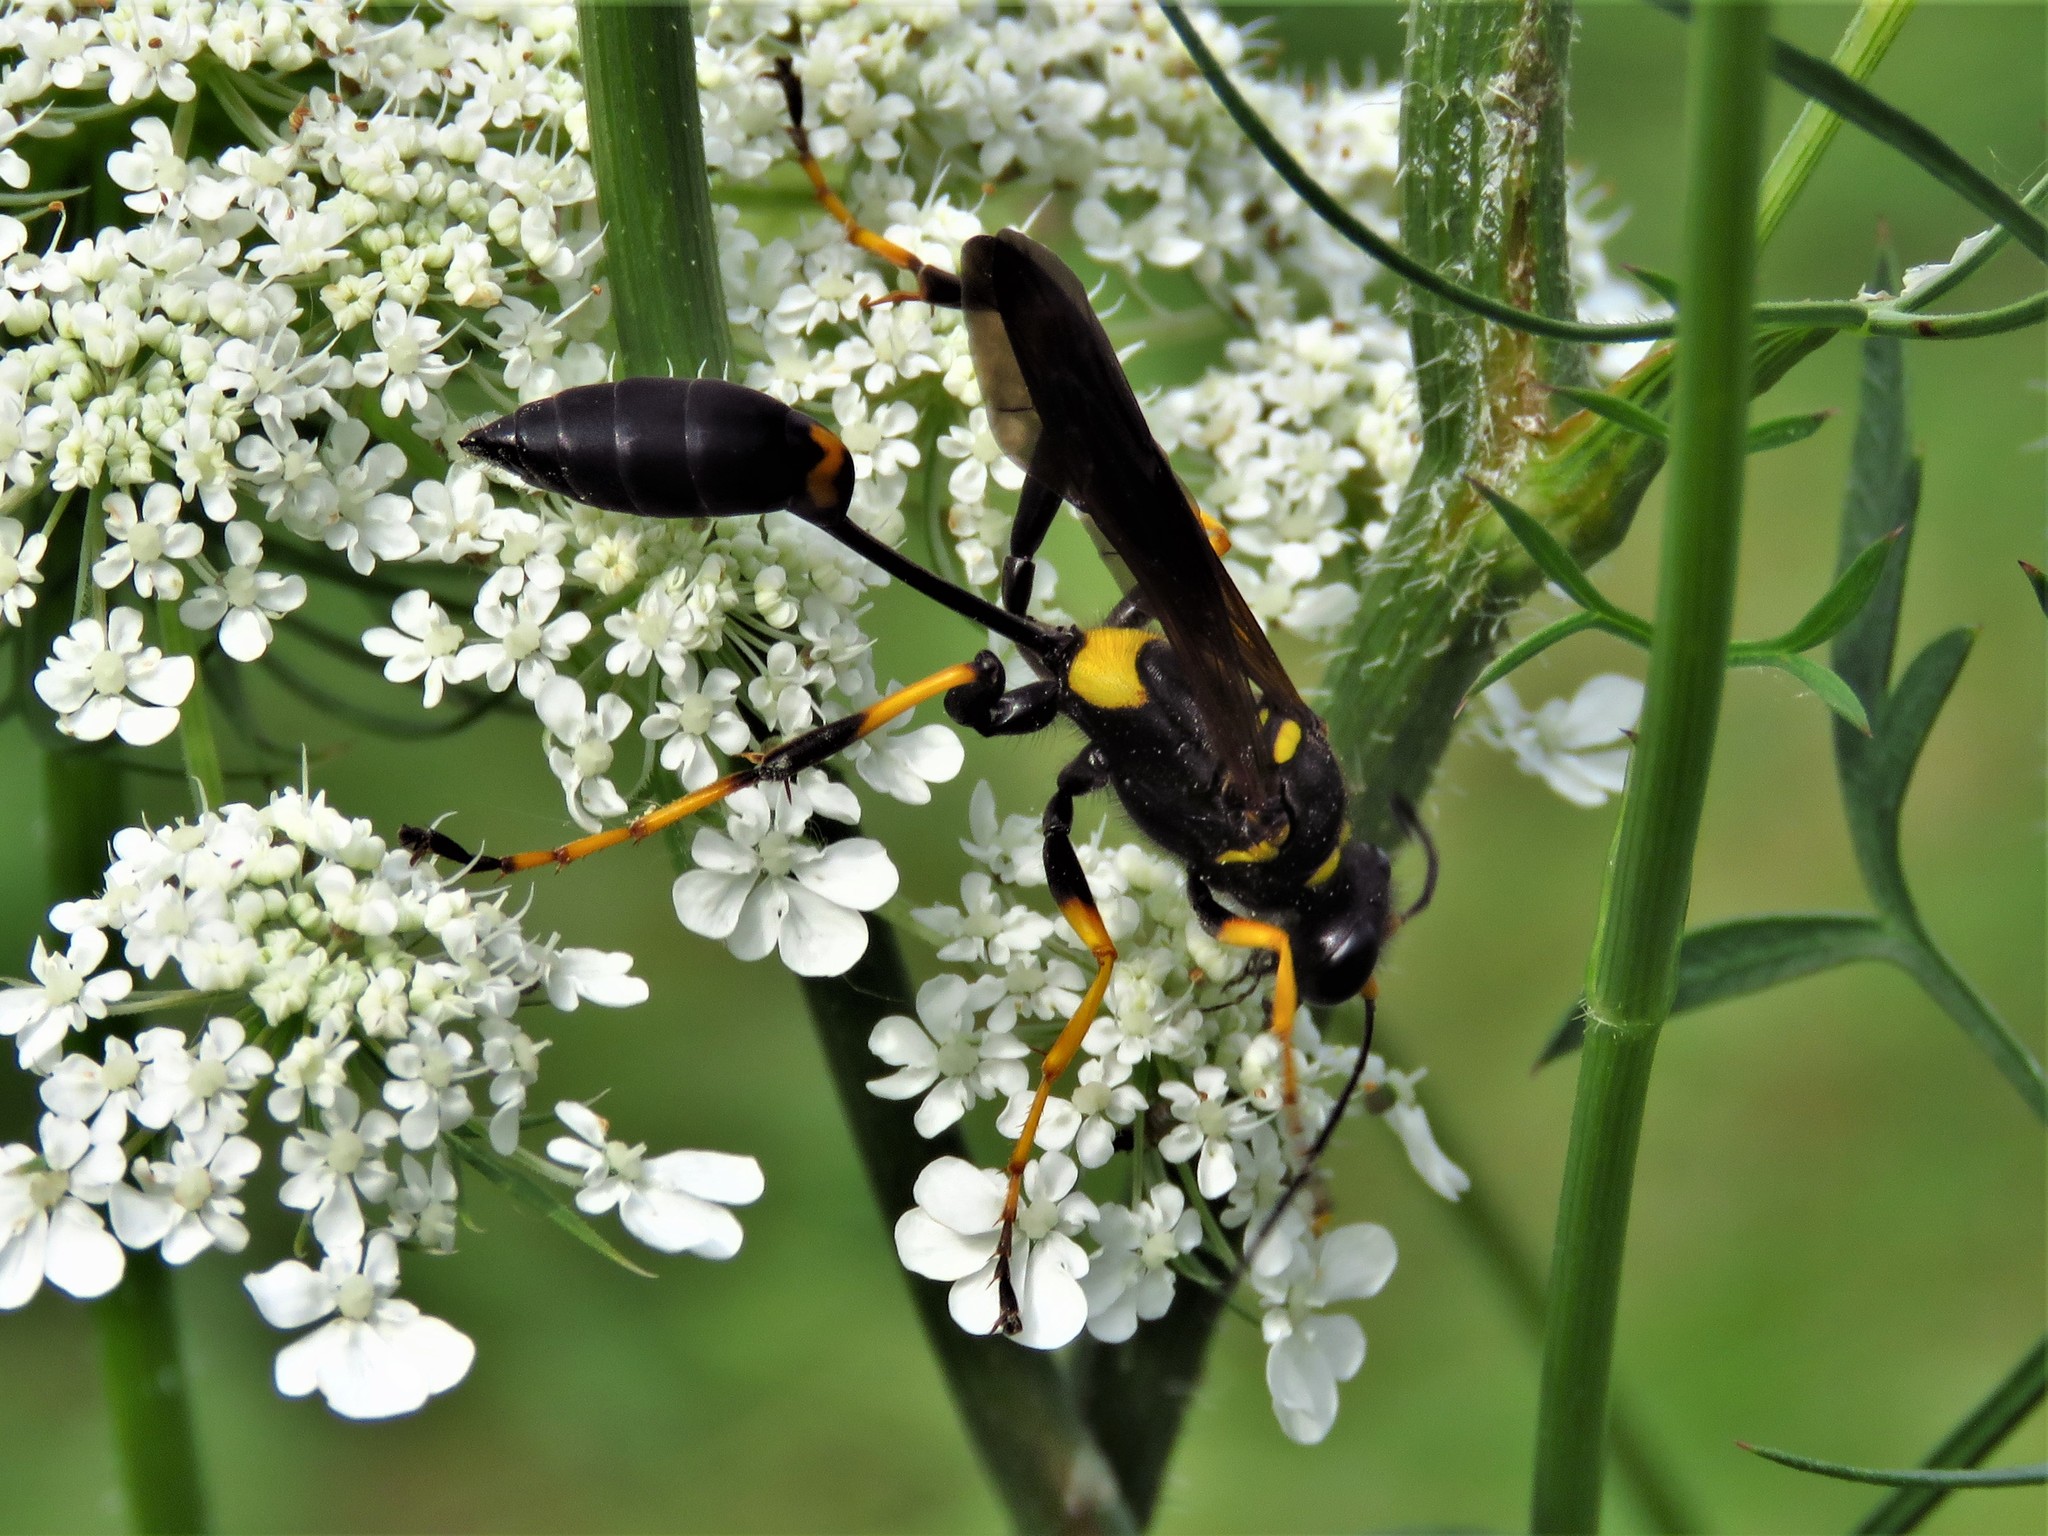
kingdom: Animalia
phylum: Arthropoda
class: Insecta
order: Hymenoptera
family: Sphecidae
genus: Sceliphron
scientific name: Sceliphron caementarium
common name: Mud dauber
